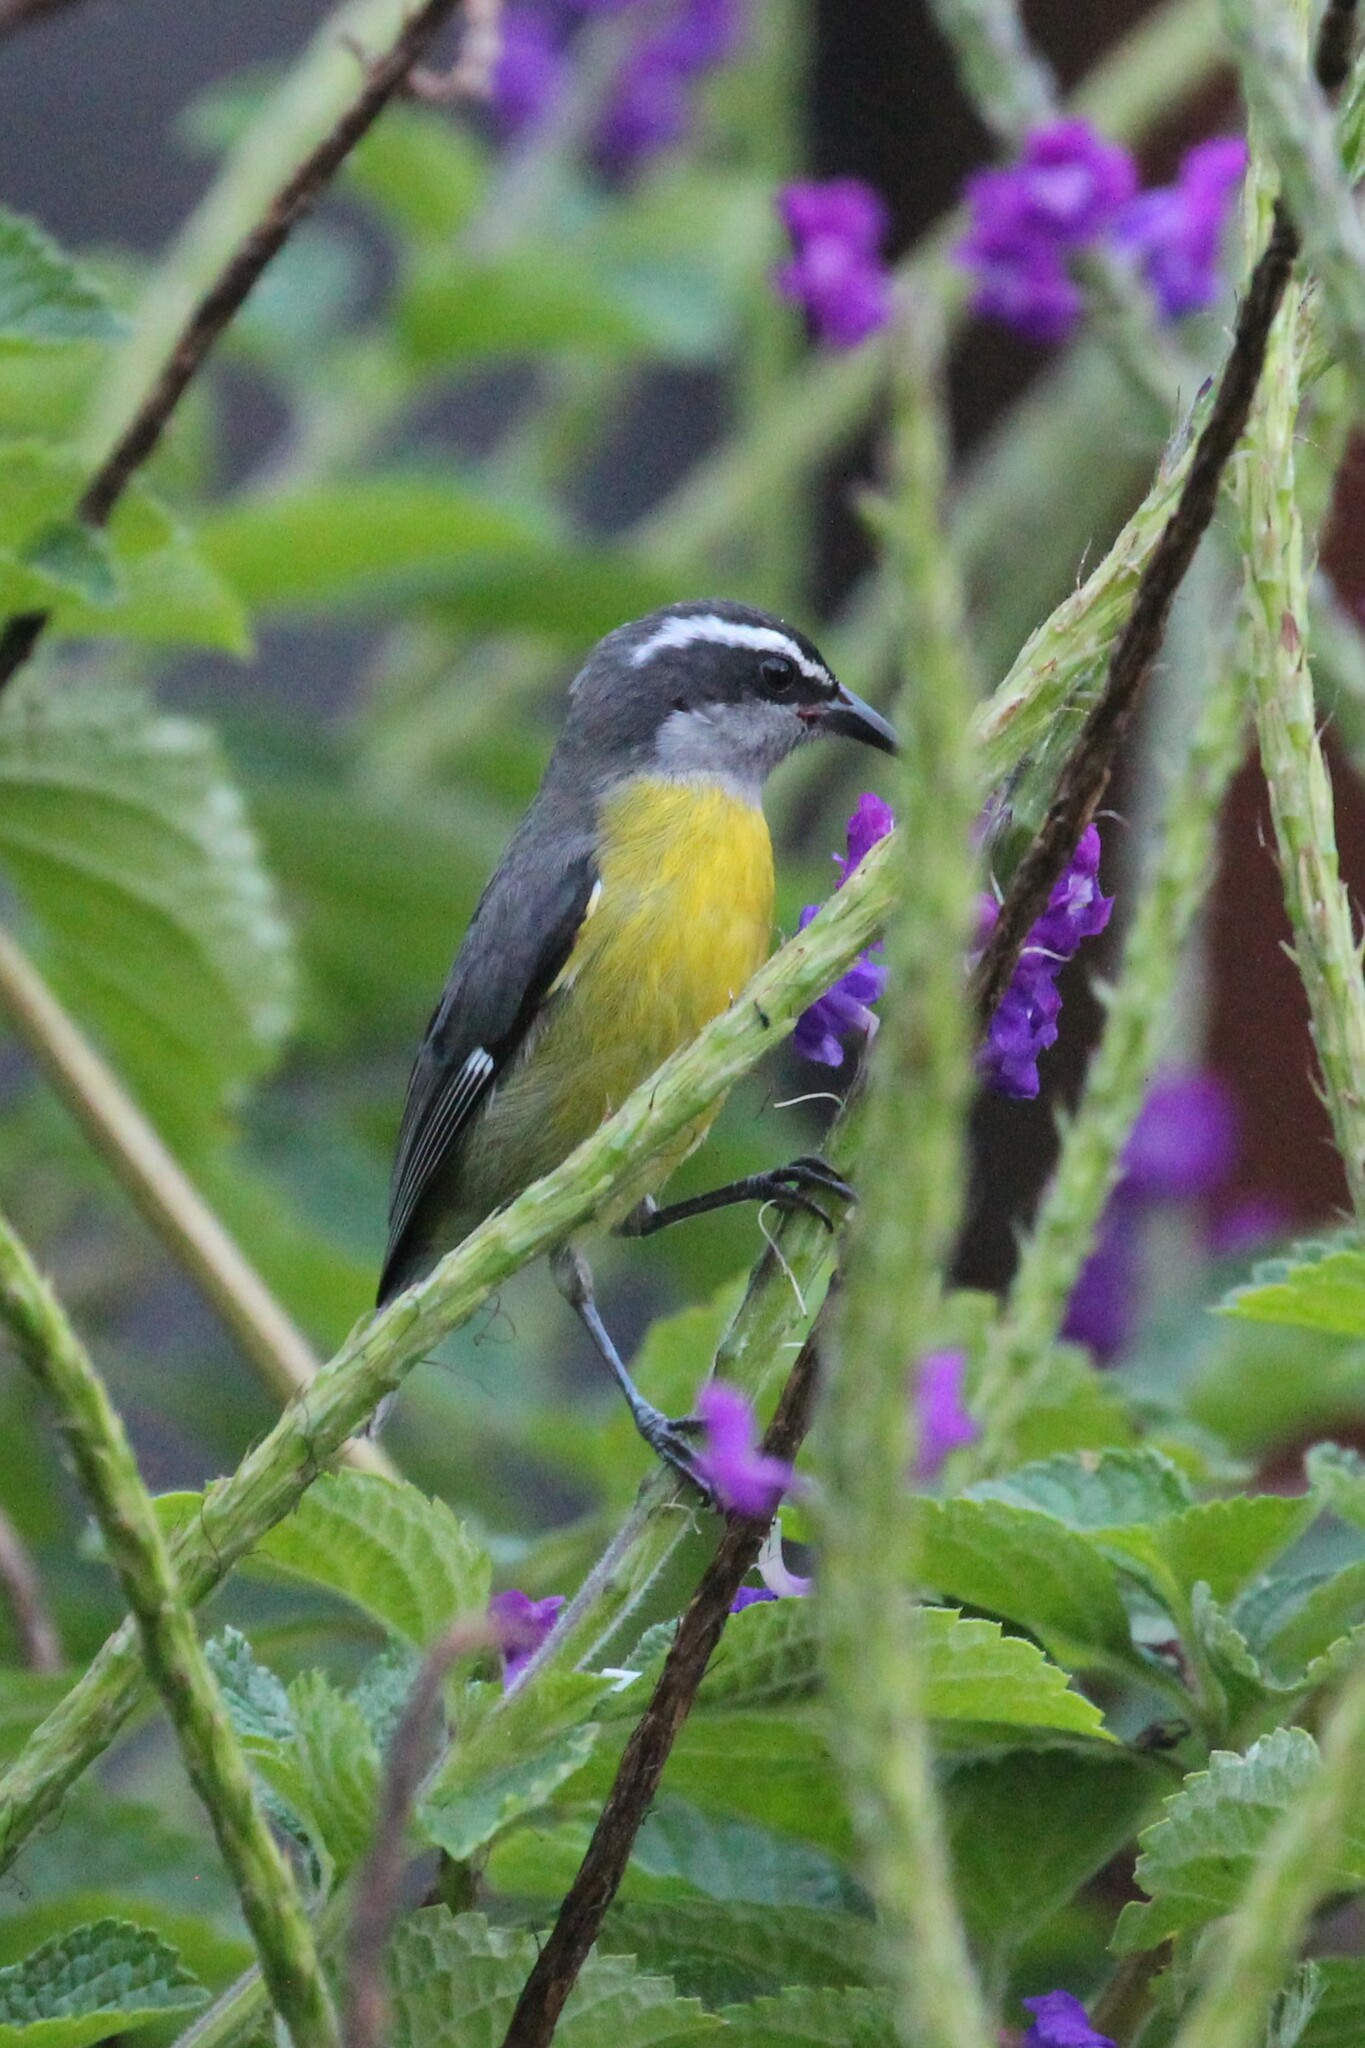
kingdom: Animalia
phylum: Chordata
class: Aves
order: Passeriformes
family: Thraupidae
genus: Coereba
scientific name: Coereba flaveola
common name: Bananaquit
